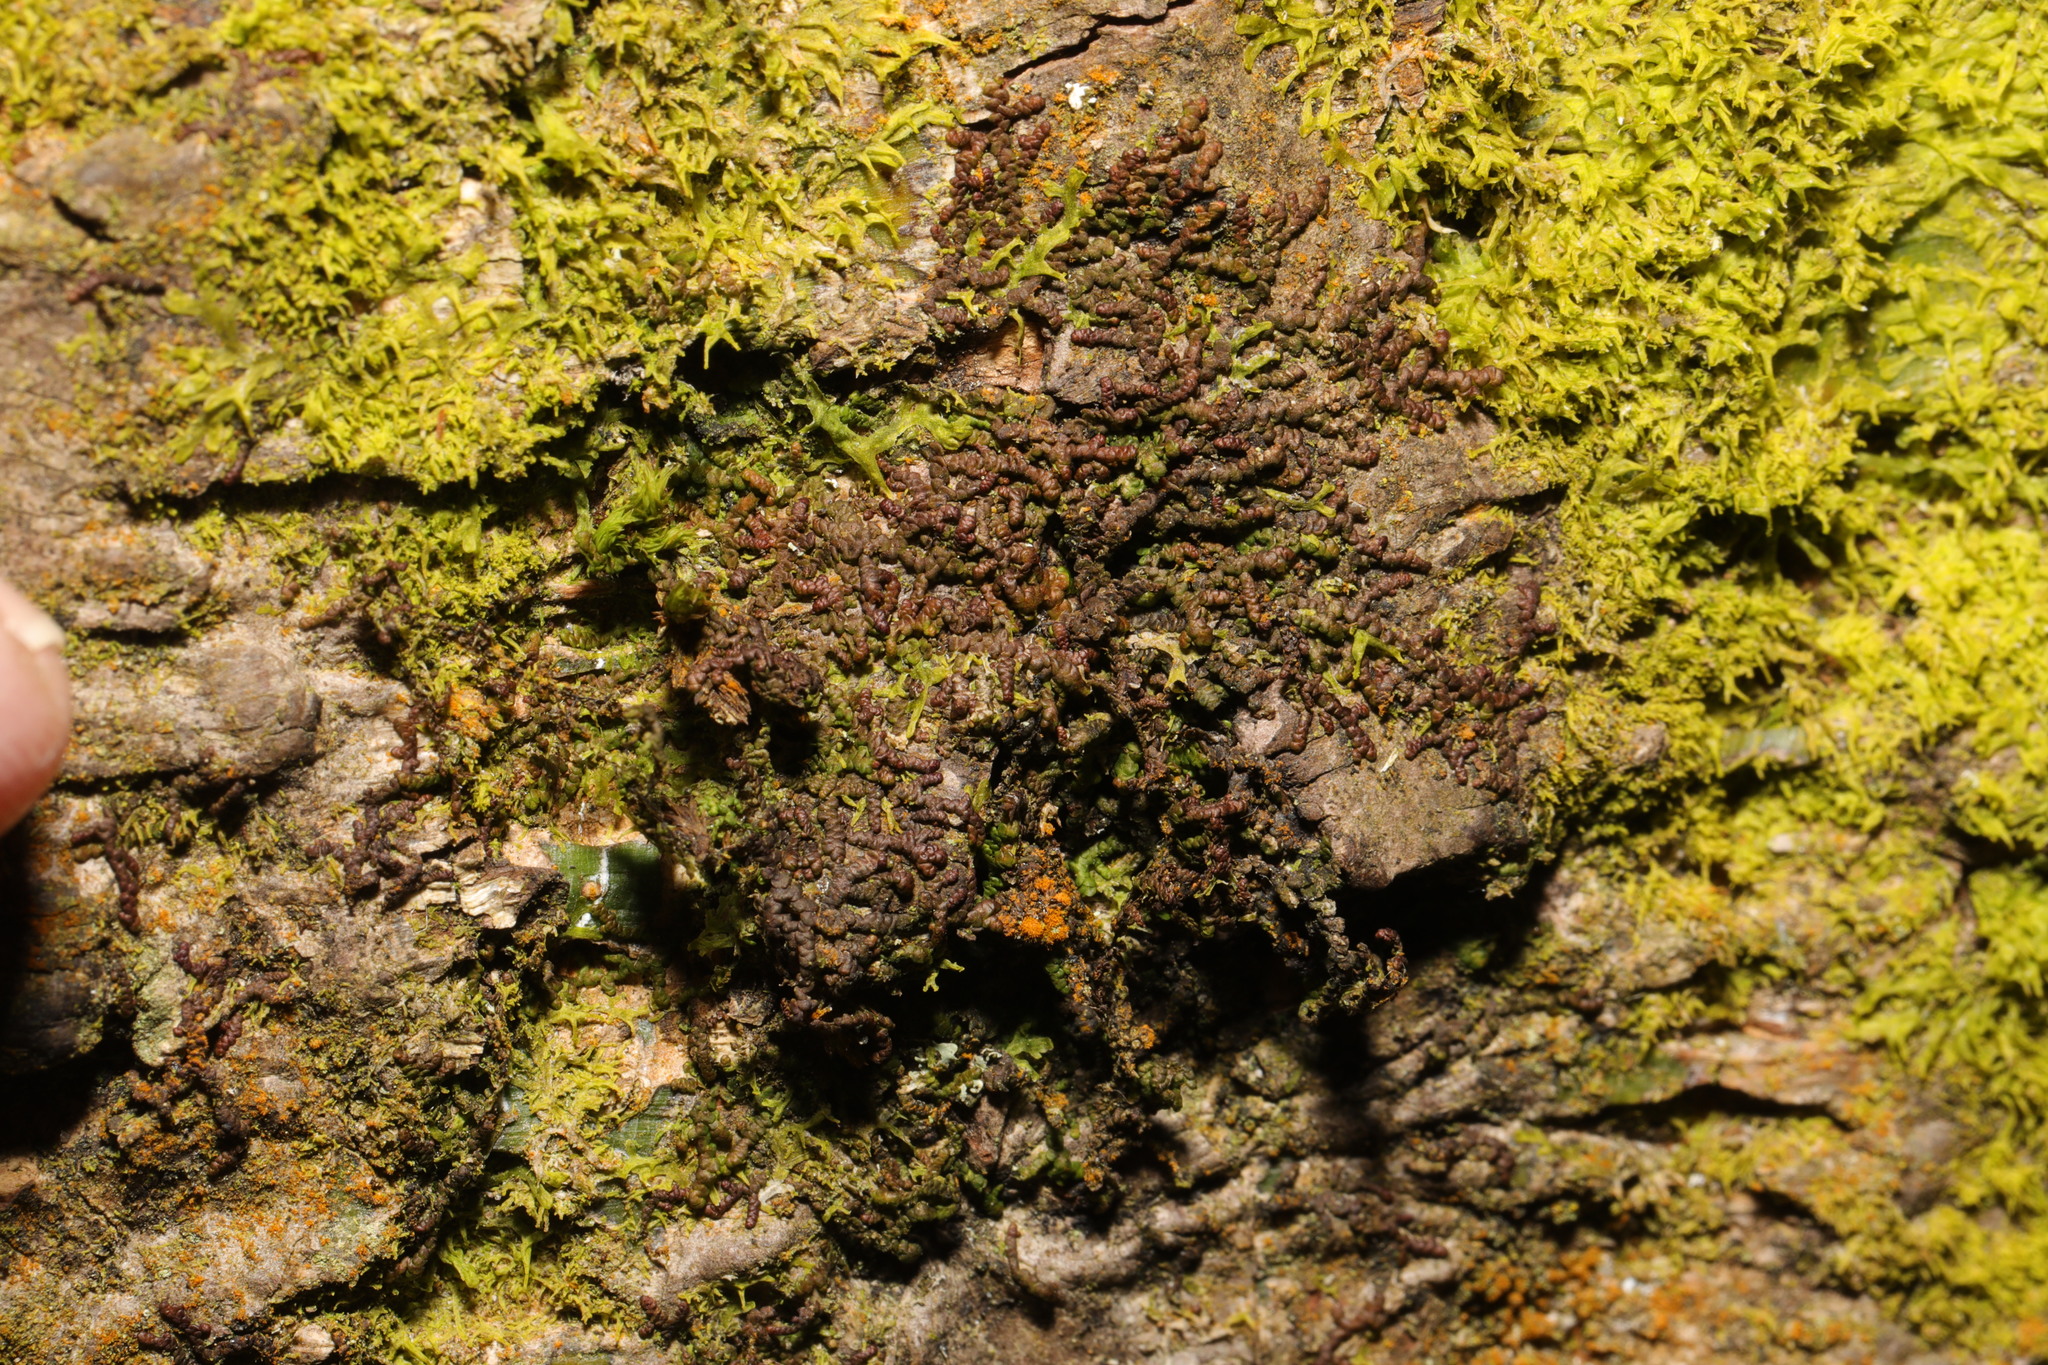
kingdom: Plantae
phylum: Marchantiophyta
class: Jungermanniopsida
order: Porellales
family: Frullaniaceae
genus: Frullania
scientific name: Frullania dilatata
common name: Dilated scalewort
